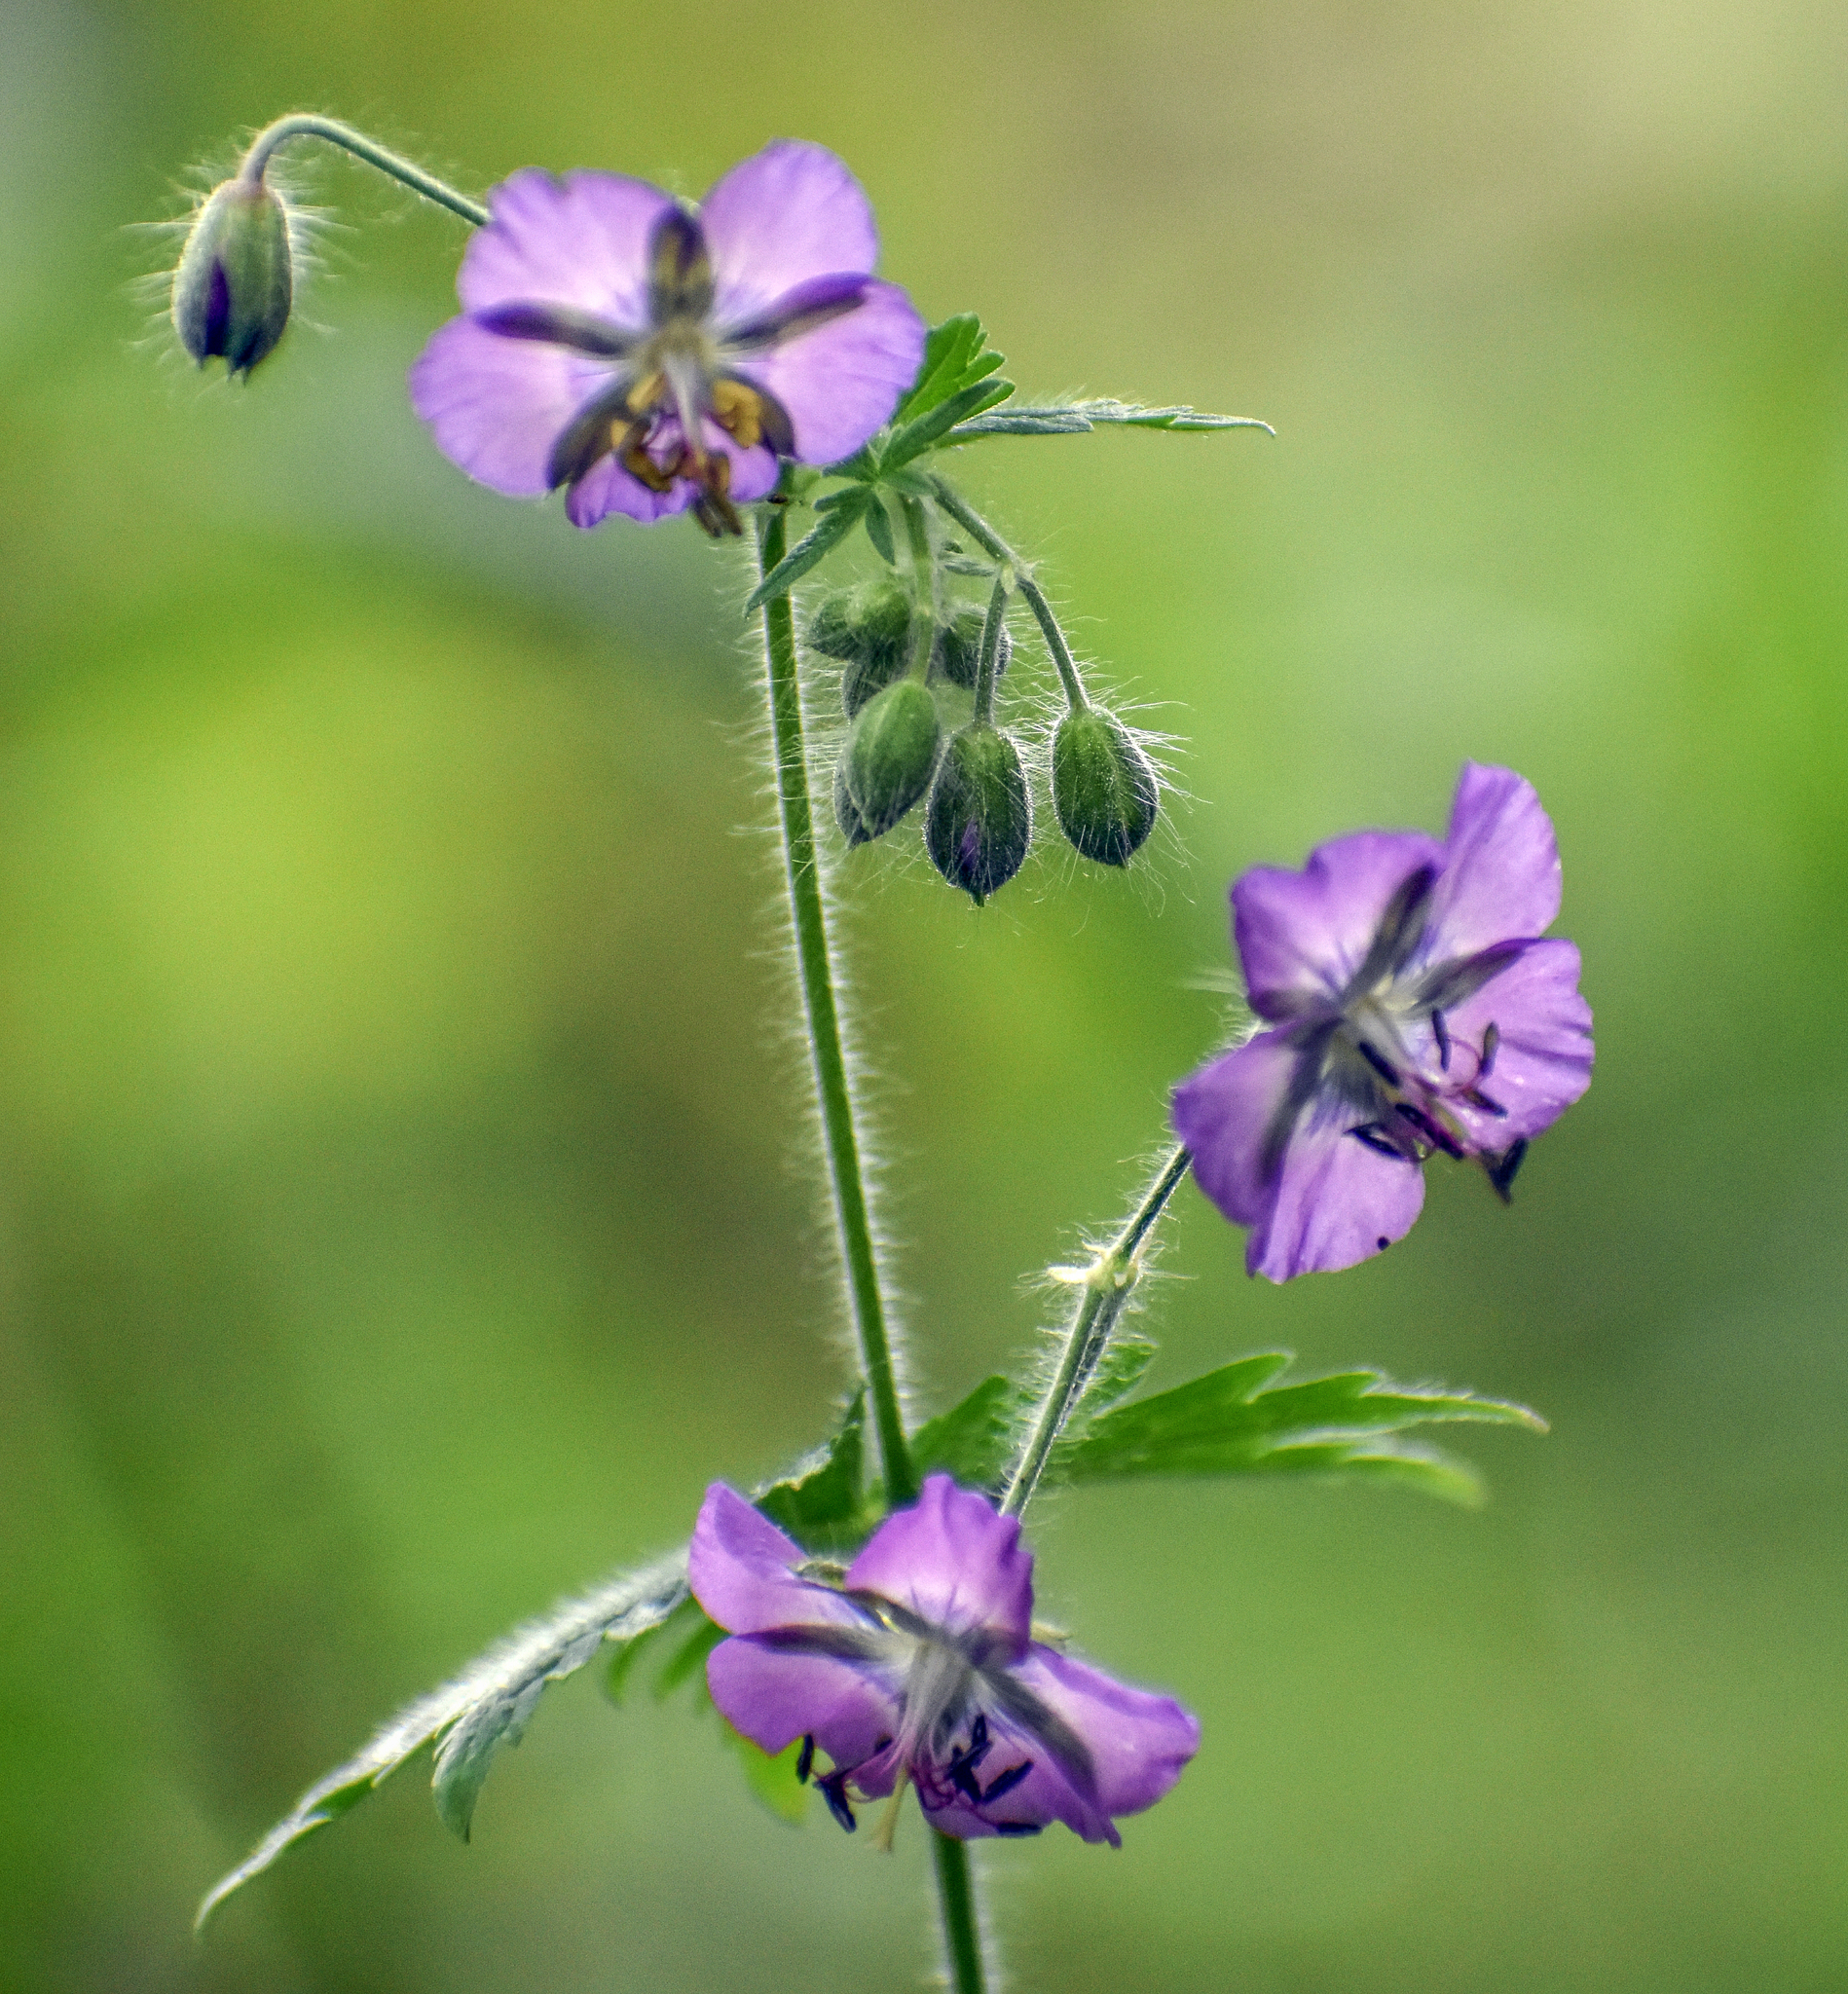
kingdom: Plantae
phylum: Tracheophyta
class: Magnoliopsida
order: Geraniales
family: Geraniaceae
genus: Geranium
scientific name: Geranium phaeum
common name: Dusky crane's-bill
